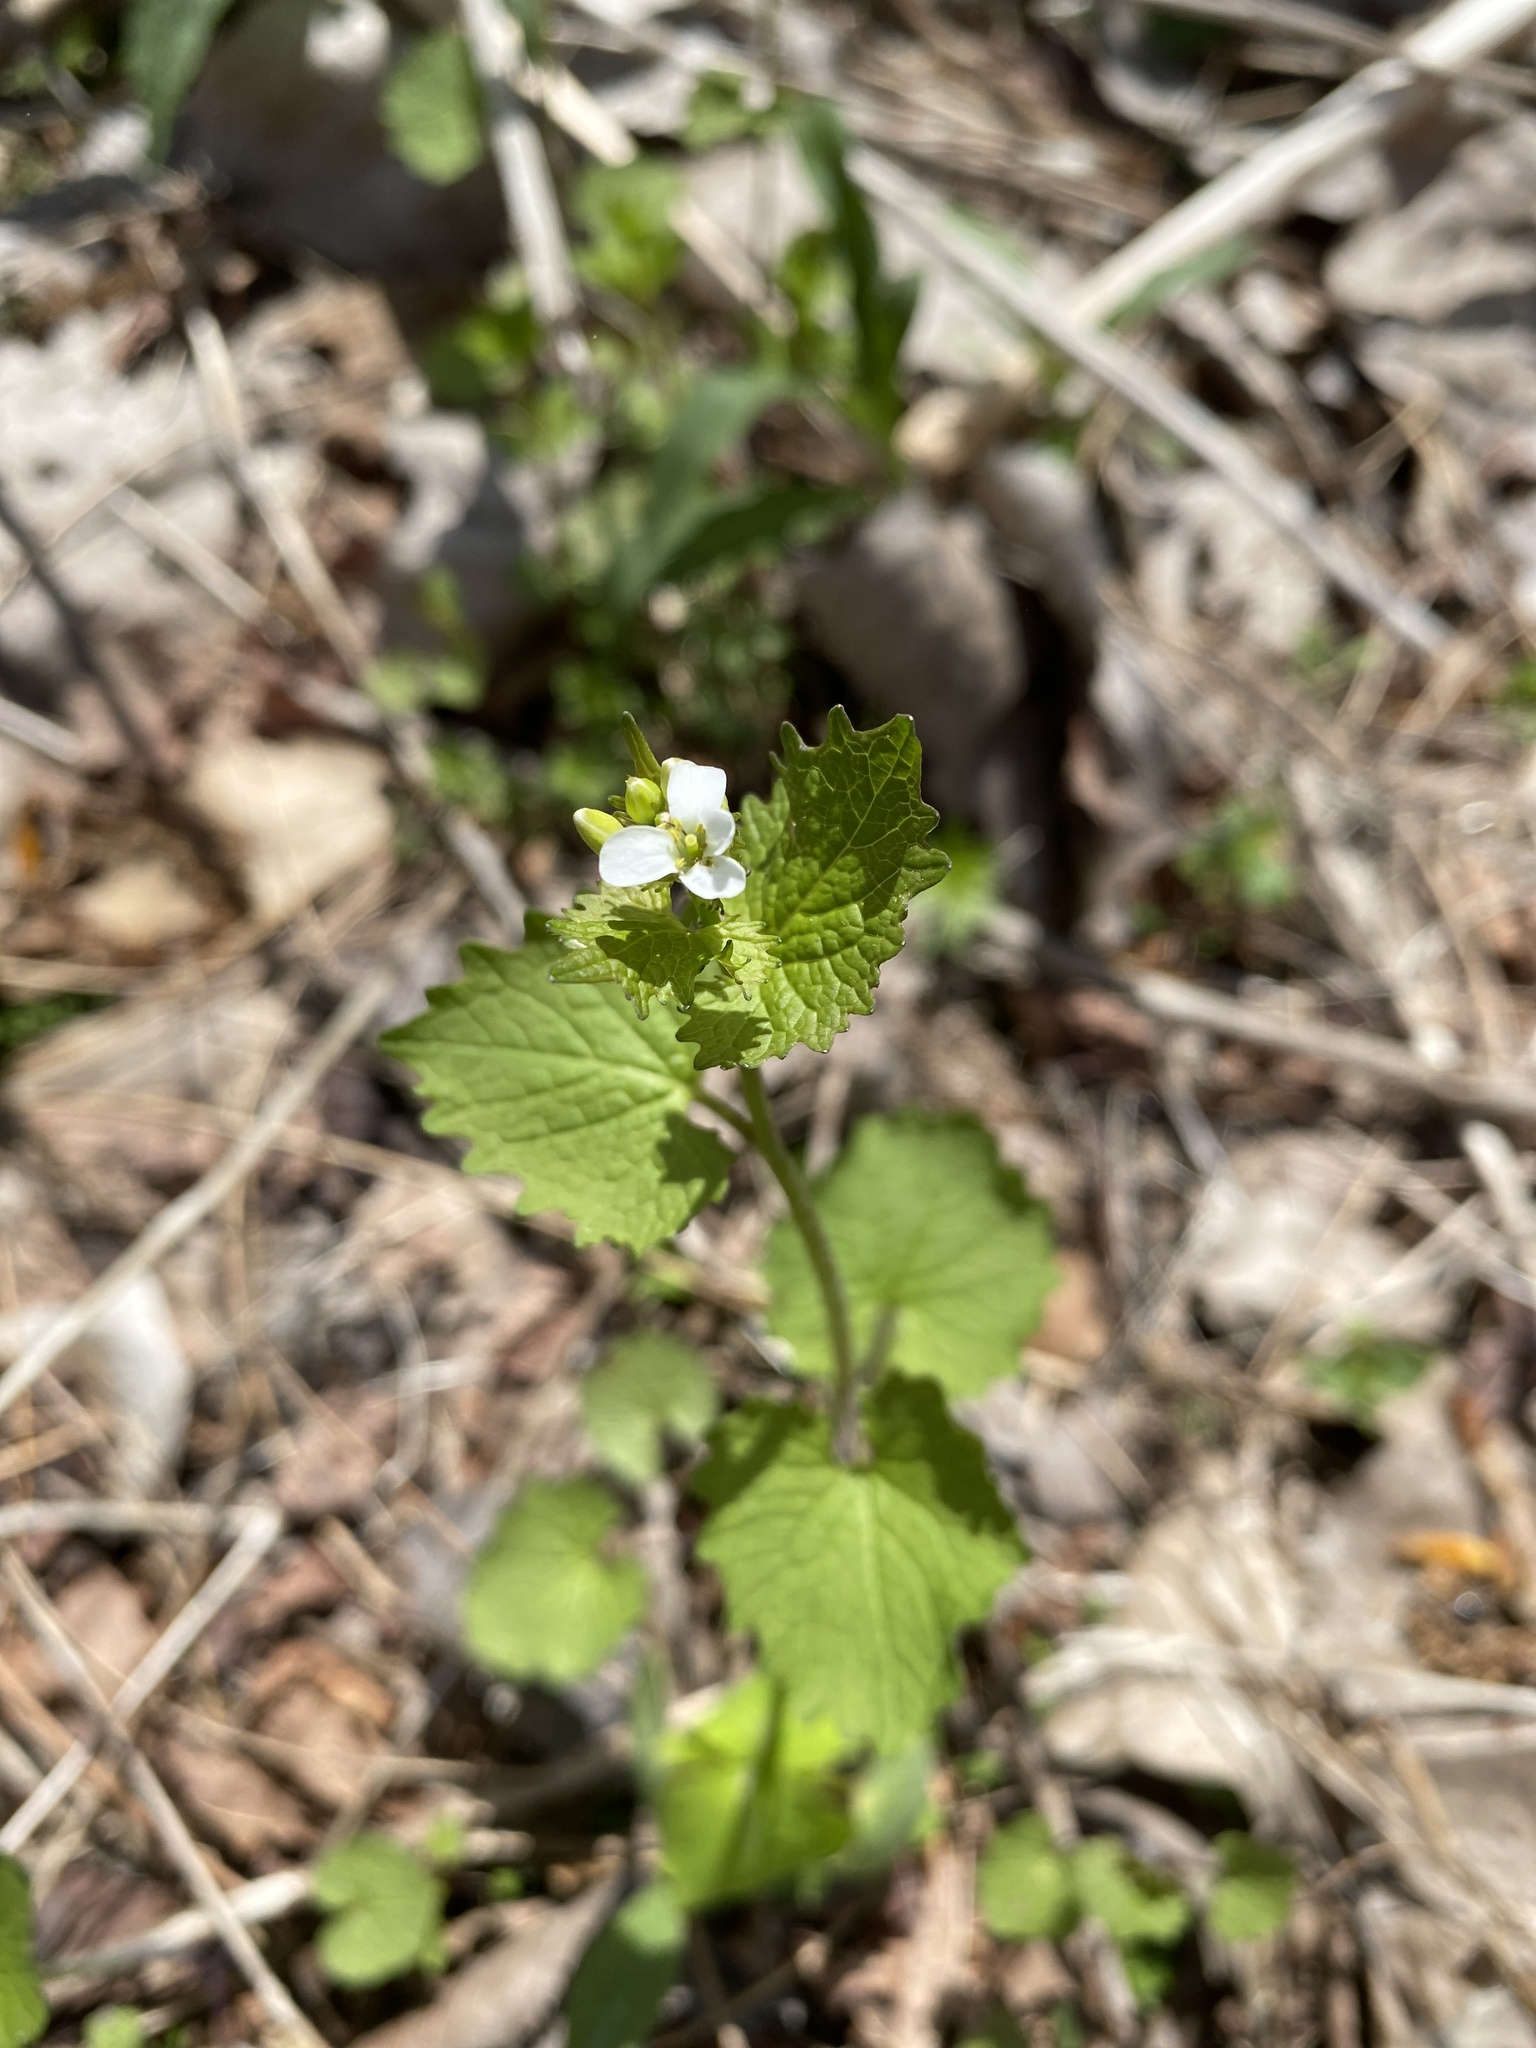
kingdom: Plantae
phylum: Tracheophyta
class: Magnoliopsida
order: Brassicales
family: Brassicaceae
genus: Alliaria
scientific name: Alliaria petiolata
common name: Garlic mustard
